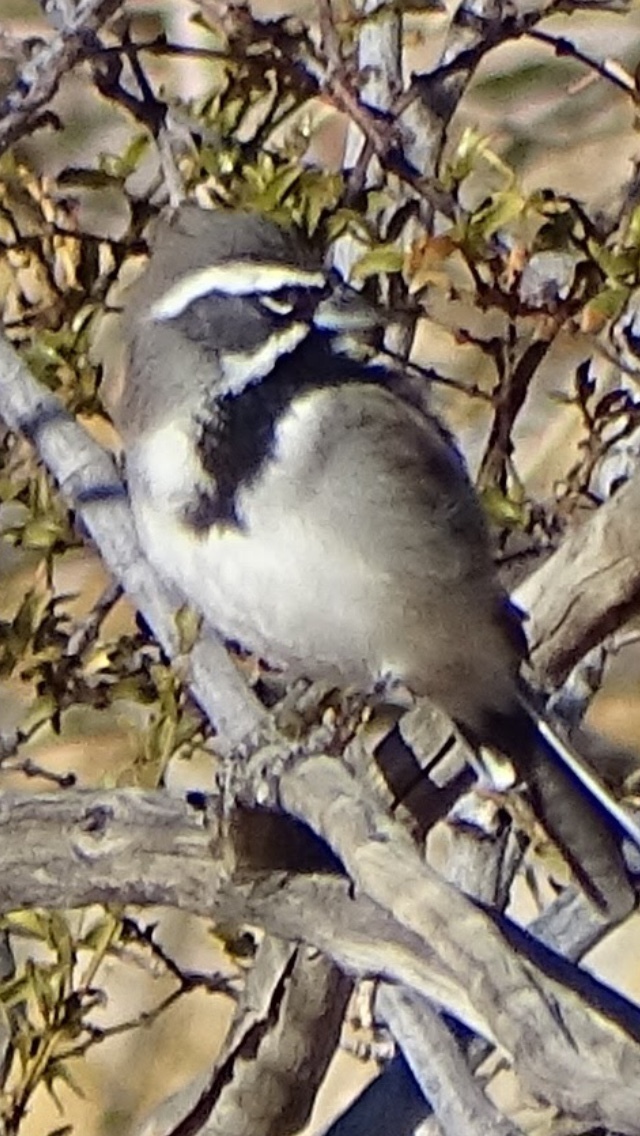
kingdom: Animalia
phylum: Chordata
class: Aves
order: Passeriformes
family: Passerellidae
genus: Amphispiza
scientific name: Amphispiza bilineata
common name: Black-throated sparrow
